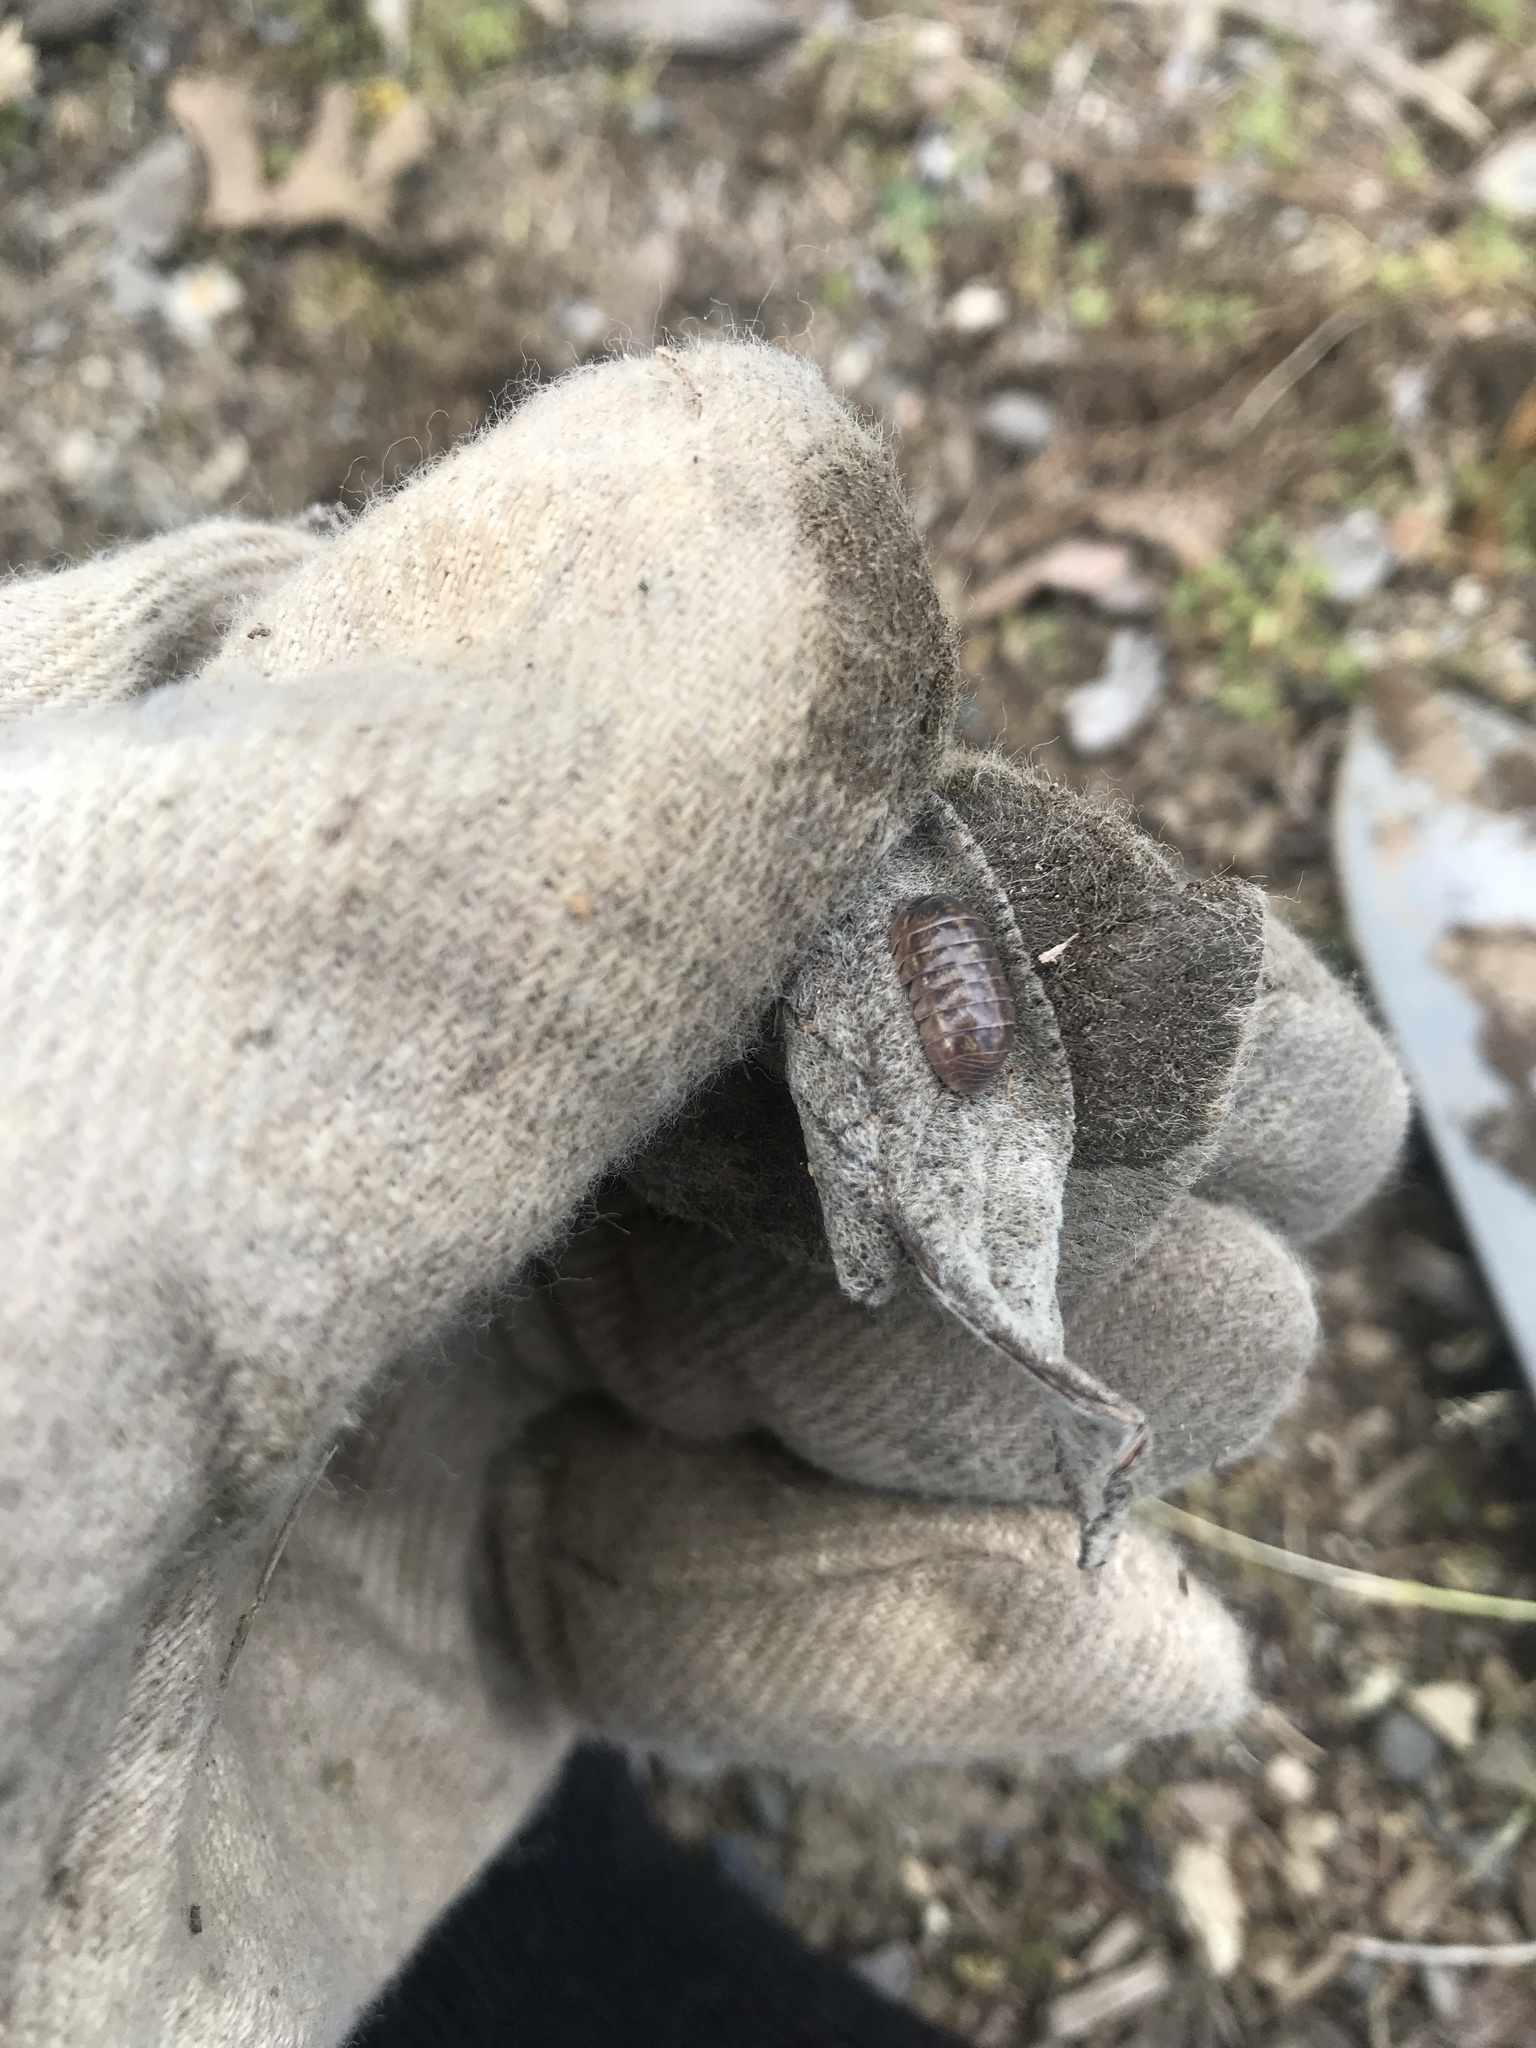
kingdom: Animalia
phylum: Arthropoda
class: Malacostraca
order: Isopoda
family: Armadillidiidae
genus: Armadillidium
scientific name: Armadillidium vulgare
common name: Common pill woodlouse
